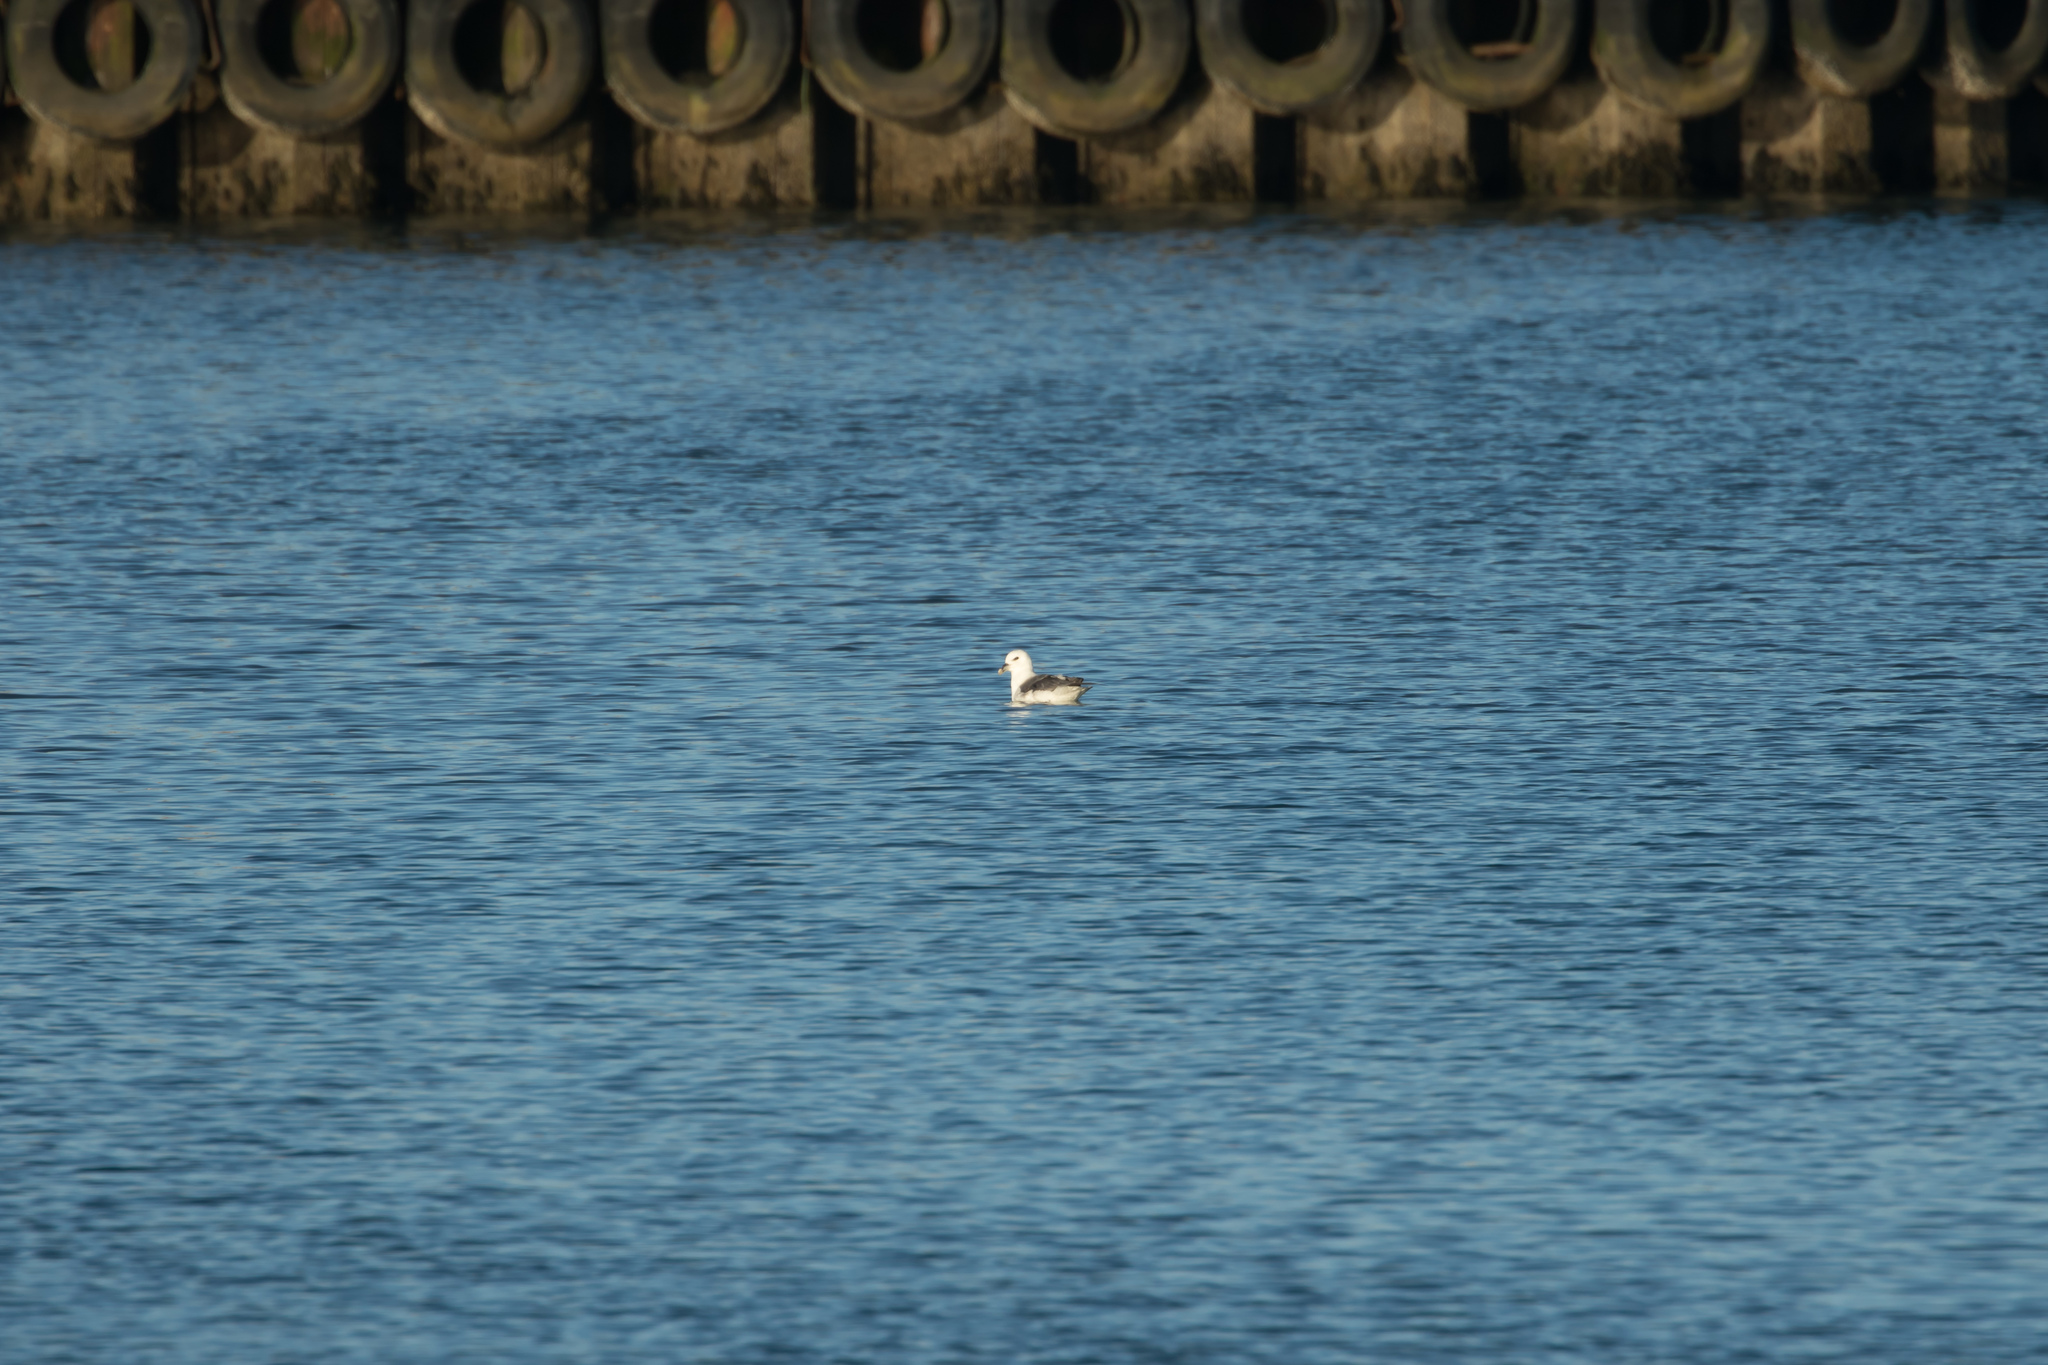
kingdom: Animalia
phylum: Chordata
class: Aves
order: Procellariiformes
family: Procellariidae
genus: Fulmarus
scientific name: Fulmarus glacialis
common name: Northern fulmar
